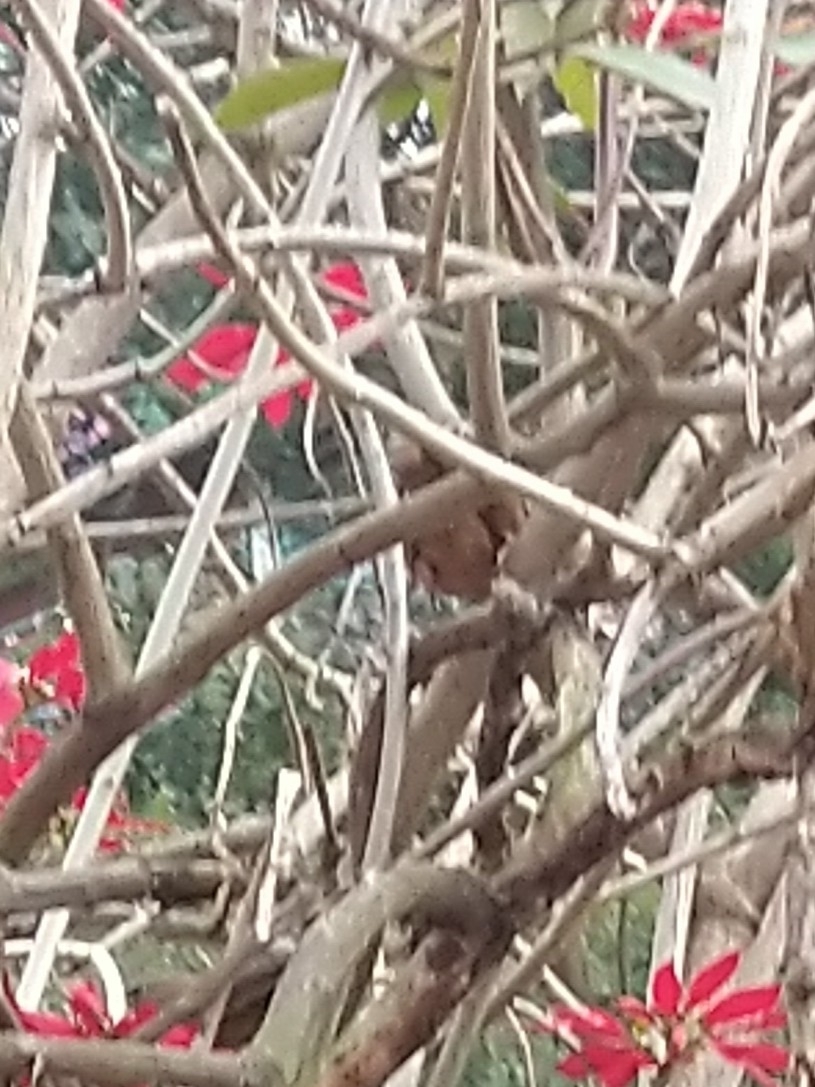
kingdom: Animalia
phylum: Chordata
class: Aves
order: Passeriformes
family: Leiothrichidae
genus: Turdoides
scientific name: Turdoides subrufa
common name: Rufous babbler
